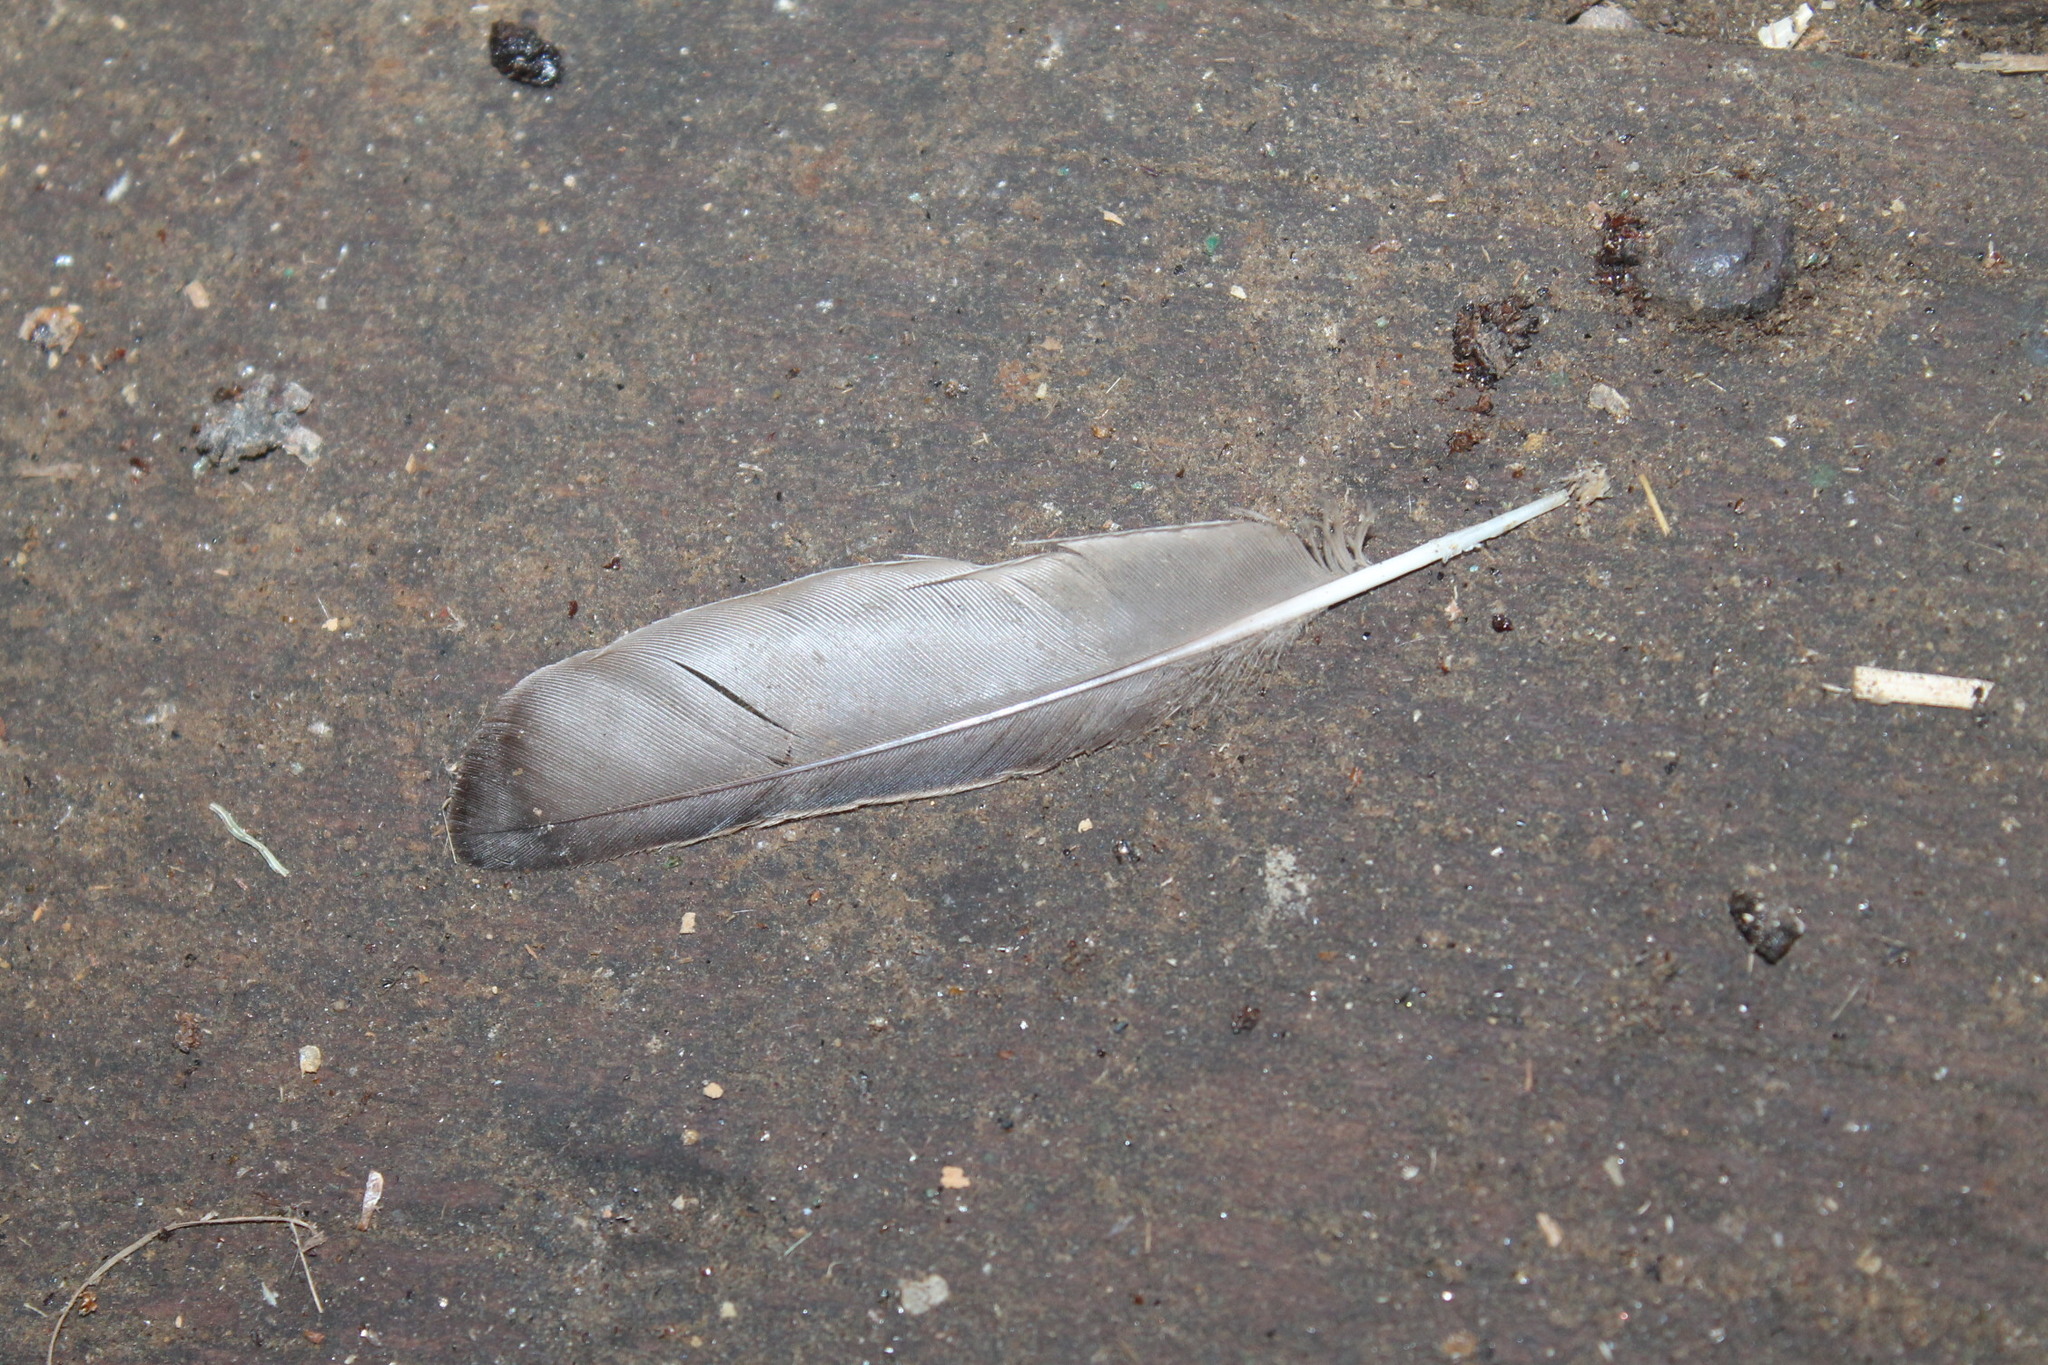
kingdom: Animalia
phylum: Chordata
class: Aves
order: Passeriformes
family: Sturnidae
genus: Sturnus
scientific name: Sturnus vulgaris
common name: Common starling
